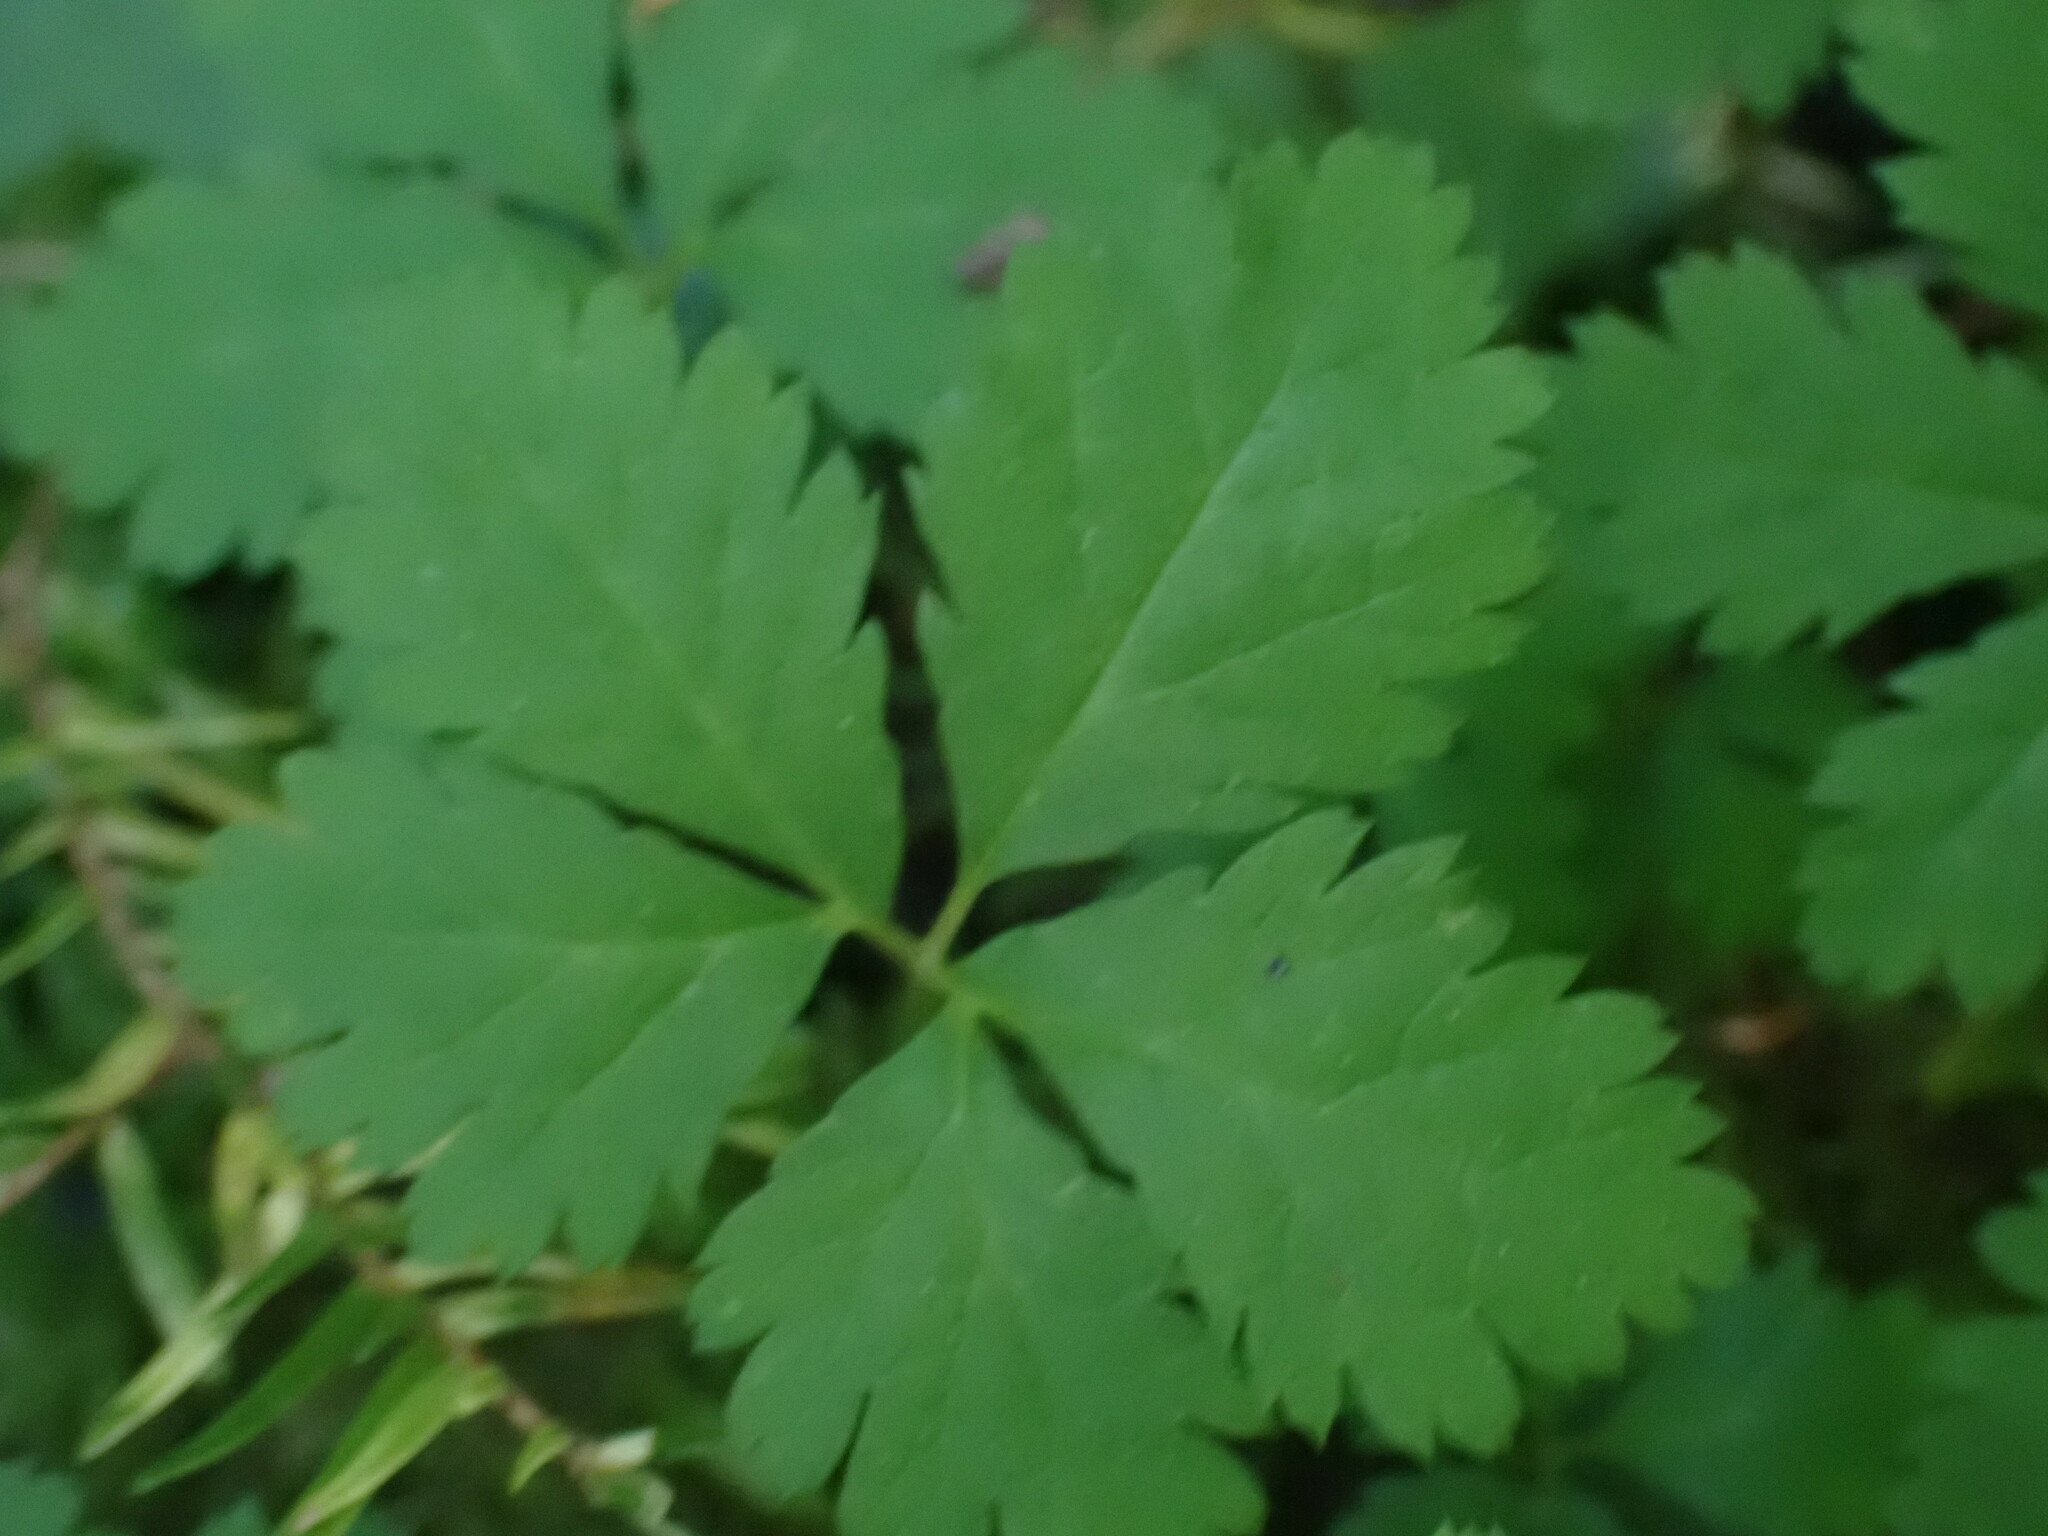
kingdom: Plantae
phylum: Tracheophyta
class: Magnoliopsida
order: Rosales
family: Rosaceae
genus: Rubus
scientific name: Rubus pedatus
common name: Creeping raspberry
